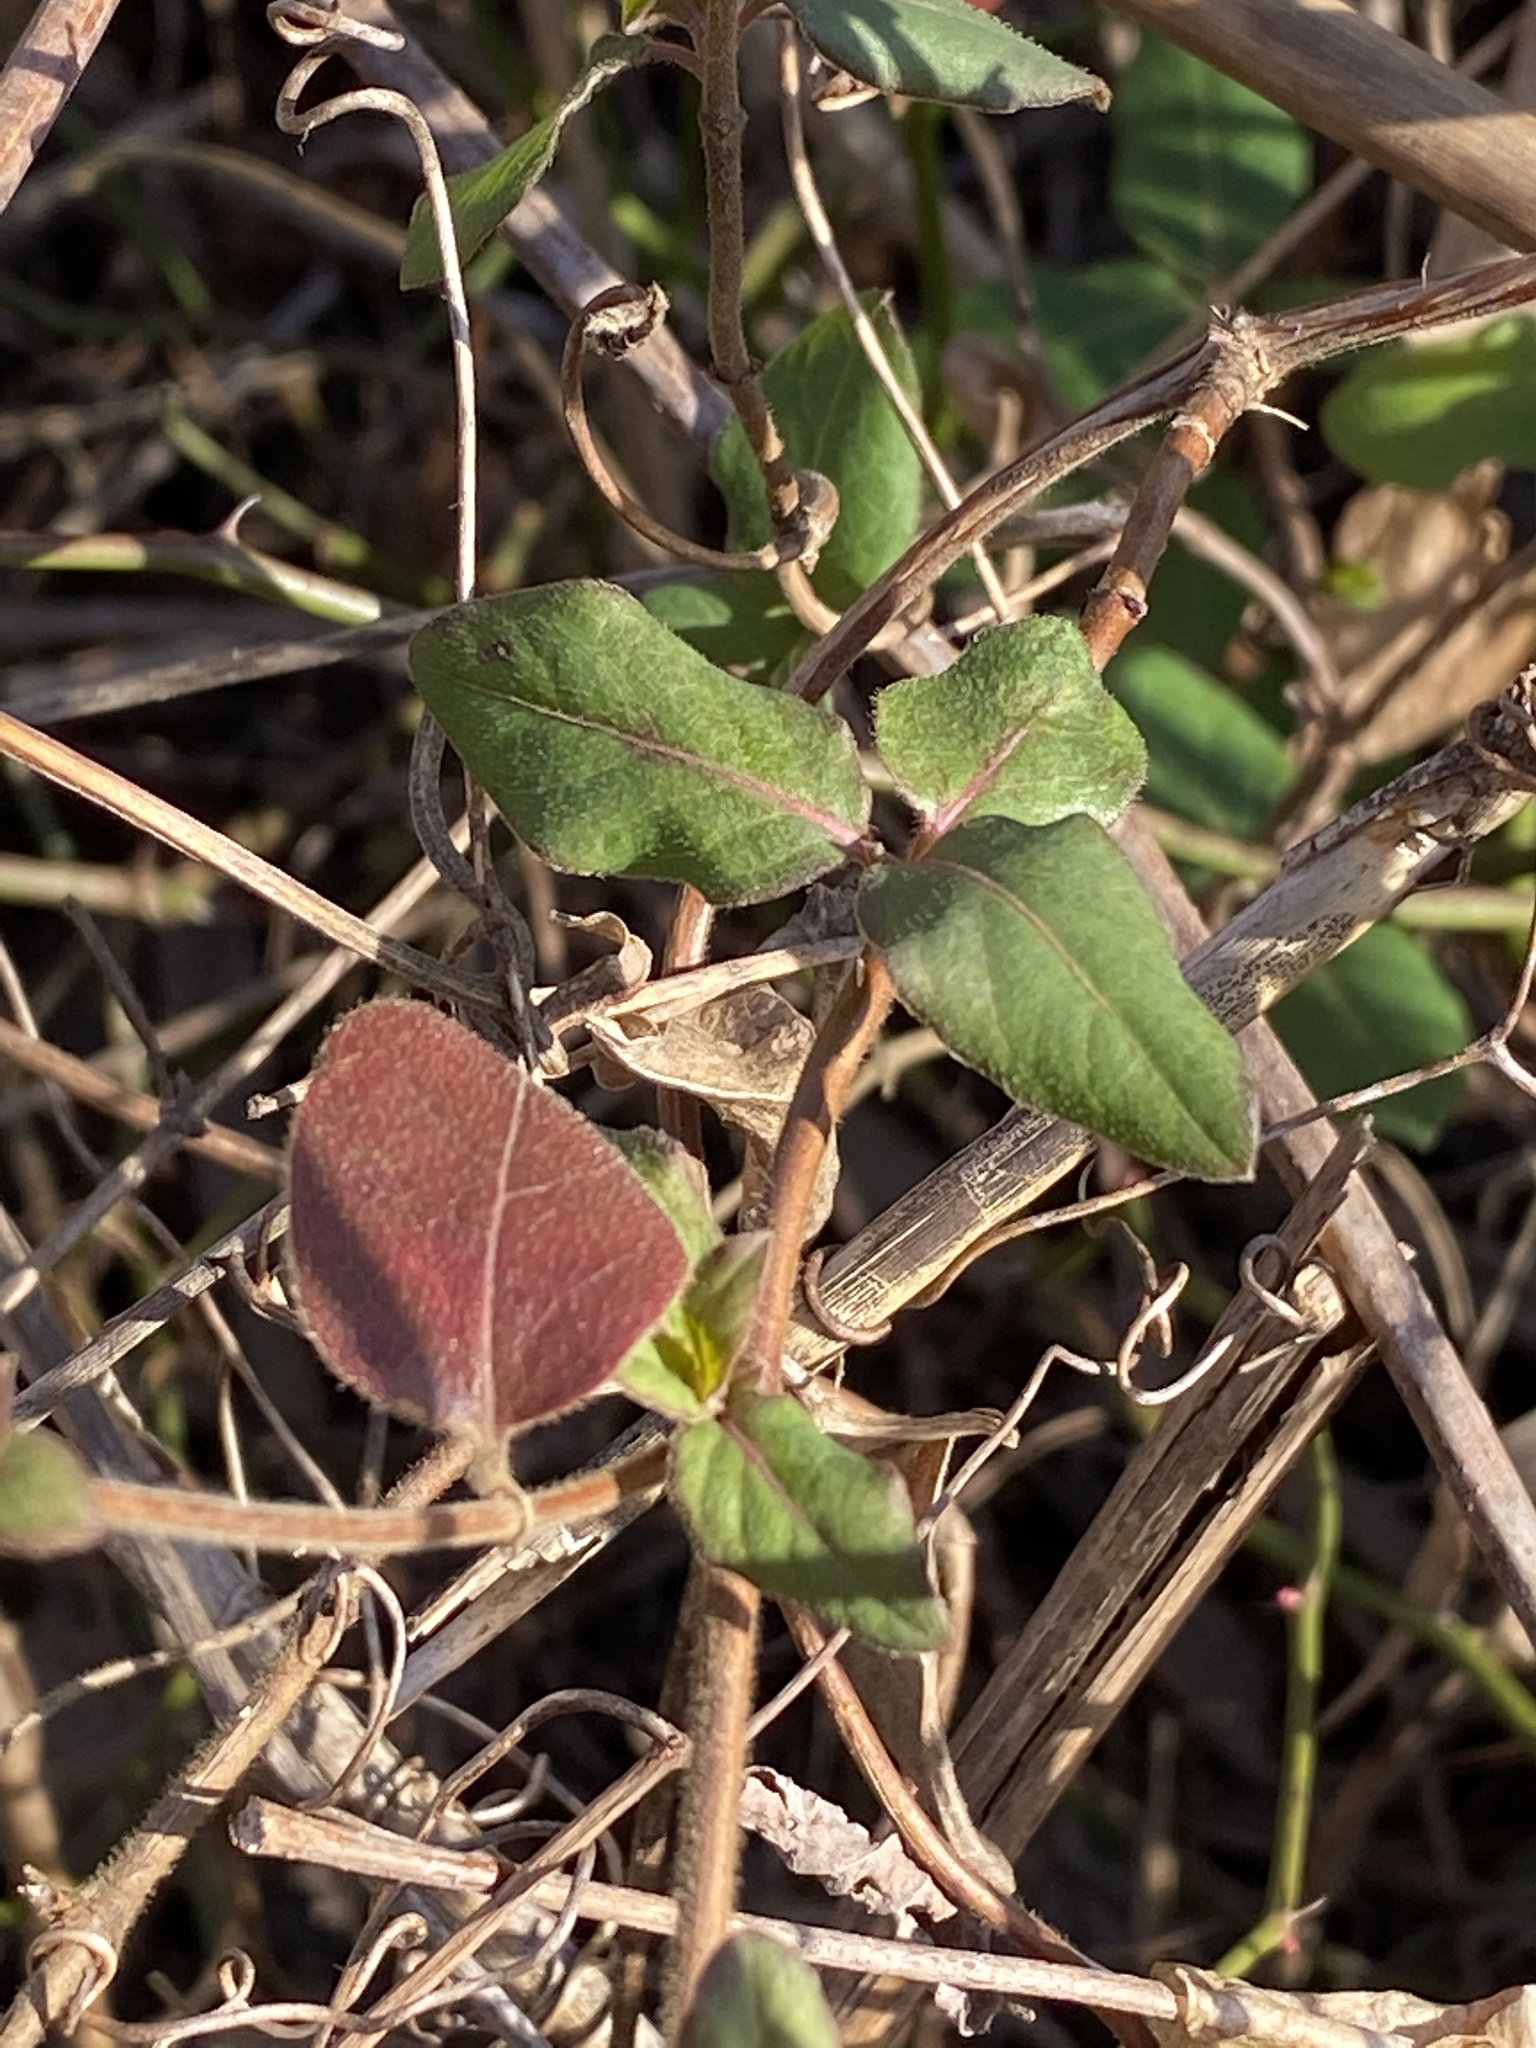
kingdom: Plantae
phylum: Tracheophyta
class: Magnoliopsida
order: Dipsacales
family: Caprifoliaceae
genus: Lonicera
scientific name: Lonicera japonica
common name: Japanese honeysuckle
